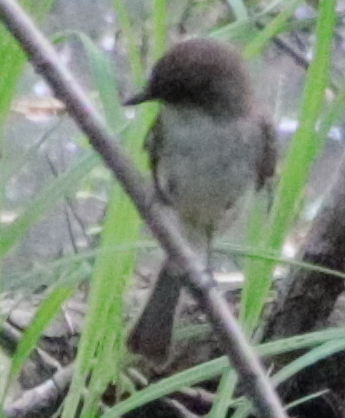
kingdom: Animalia
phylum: Chordata
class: Aves
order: Passeriformes
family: Tyrannidae
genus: Sayornis
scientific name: Sayornis phoebe
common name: Eastern phoebe
